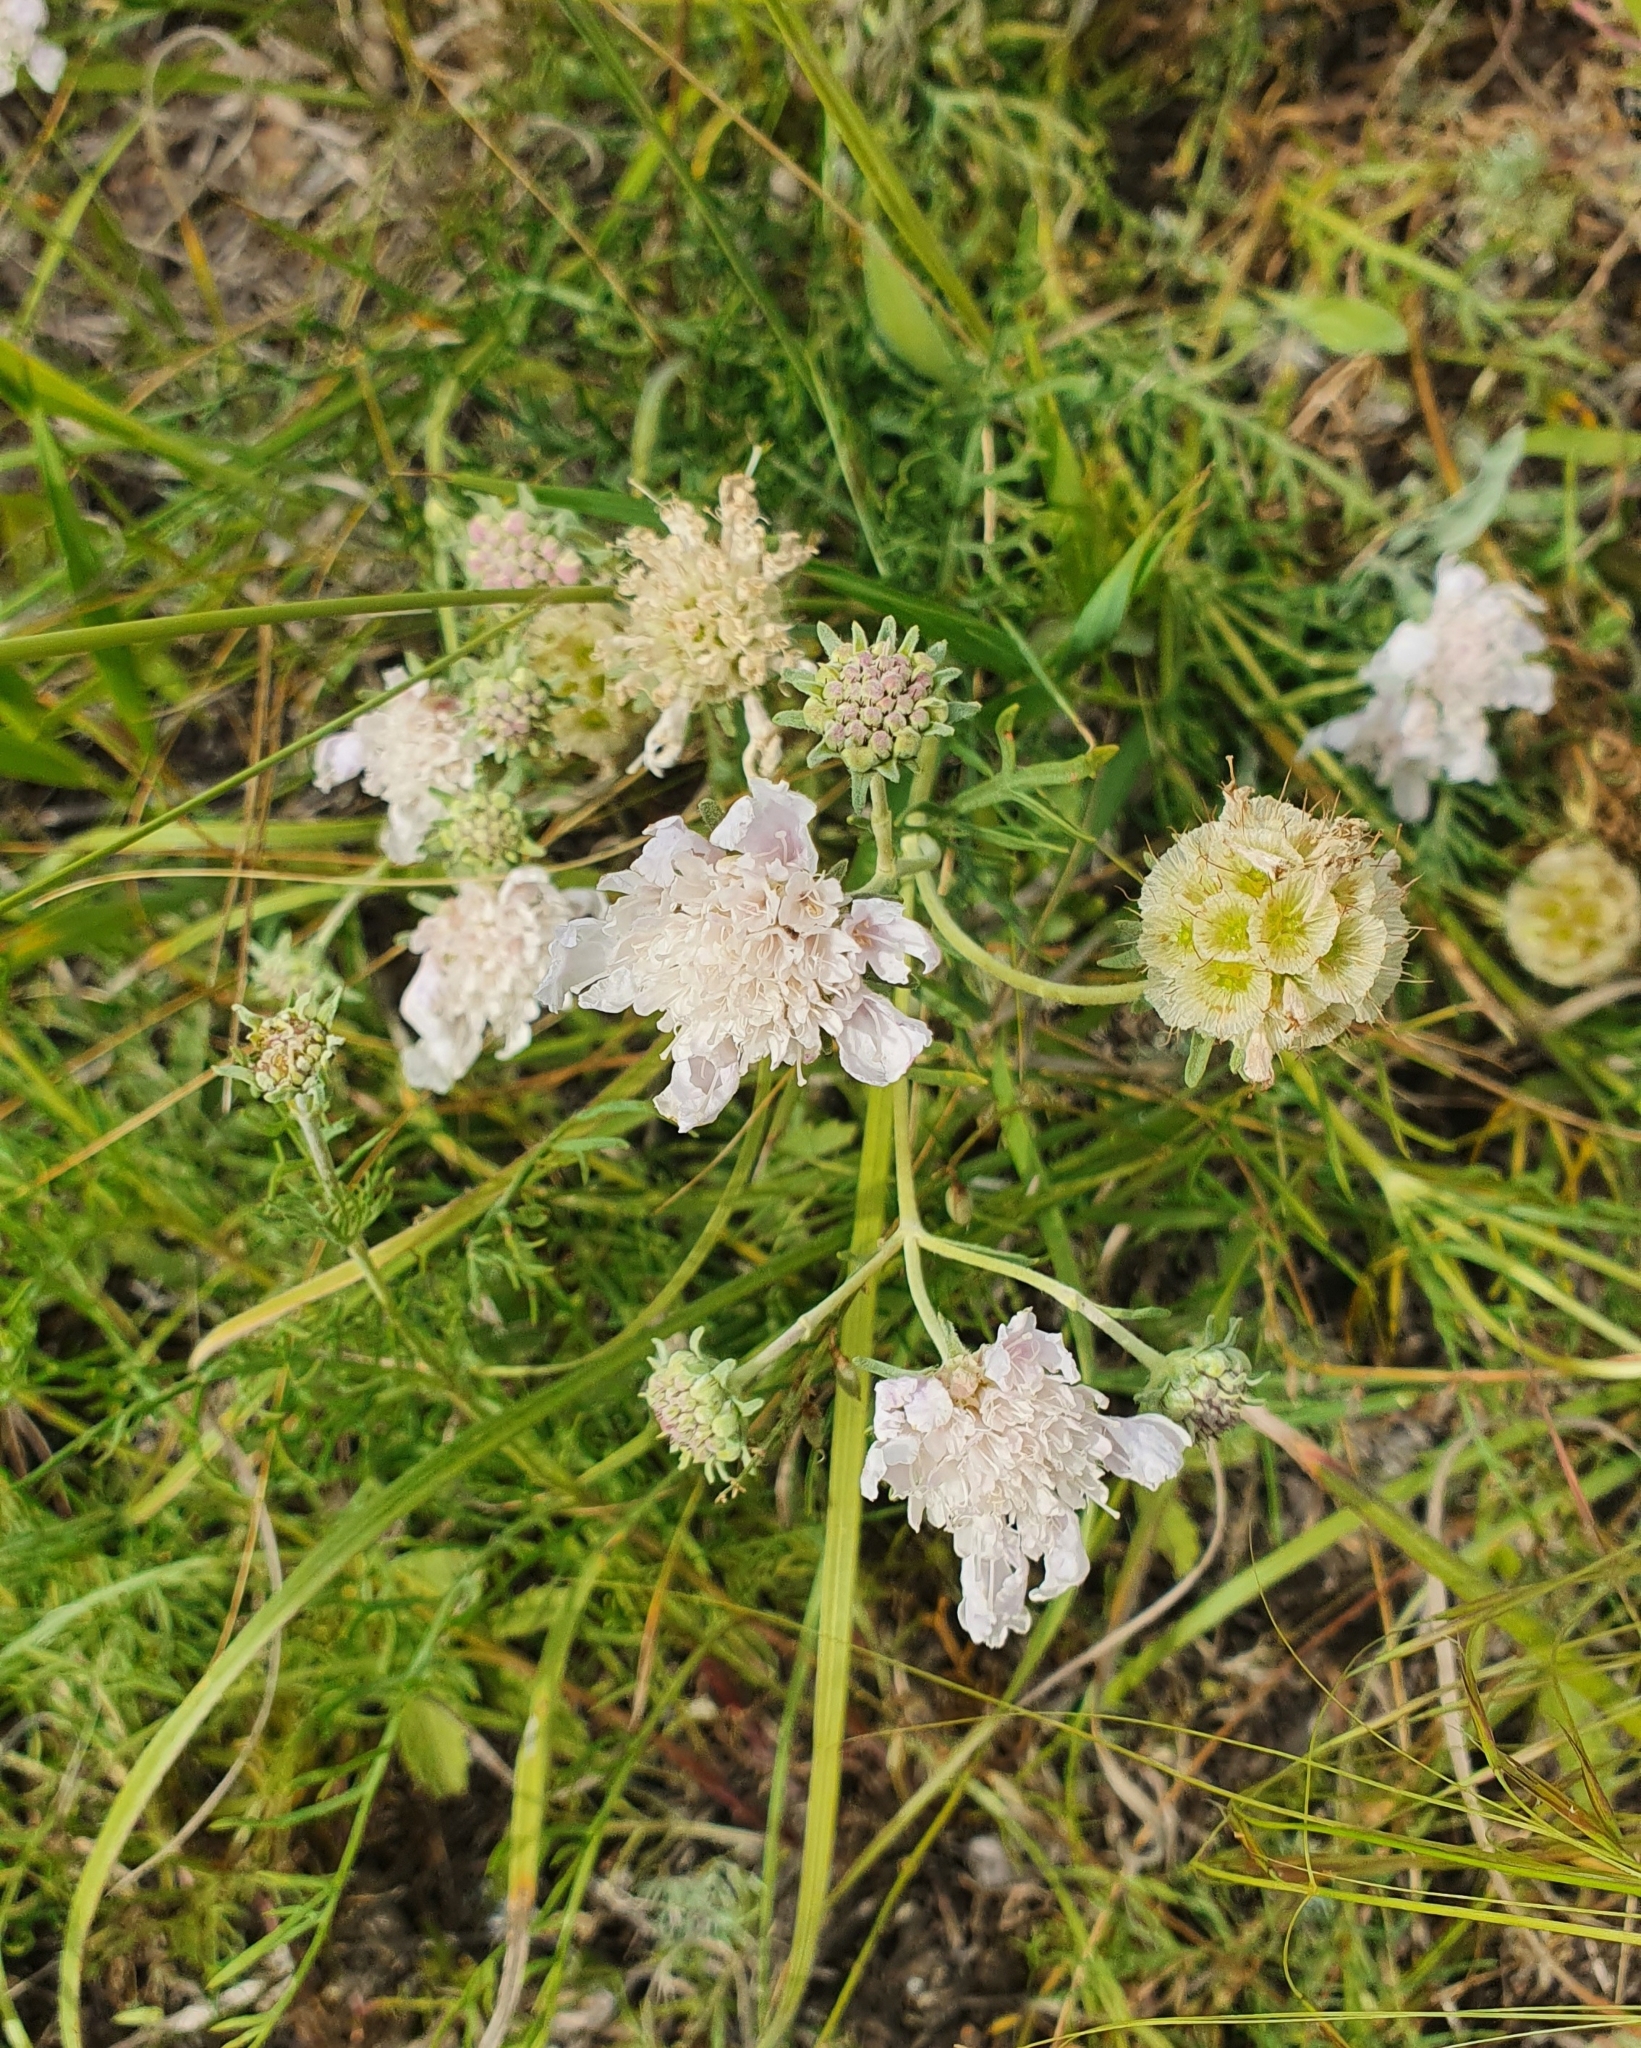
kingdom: Plantae
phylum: Tracheophyta
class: Magnoliopsida
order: Dipsacales
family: Caprifoliaceae
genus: Lomelosia
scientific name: Lomelosia isetensis
